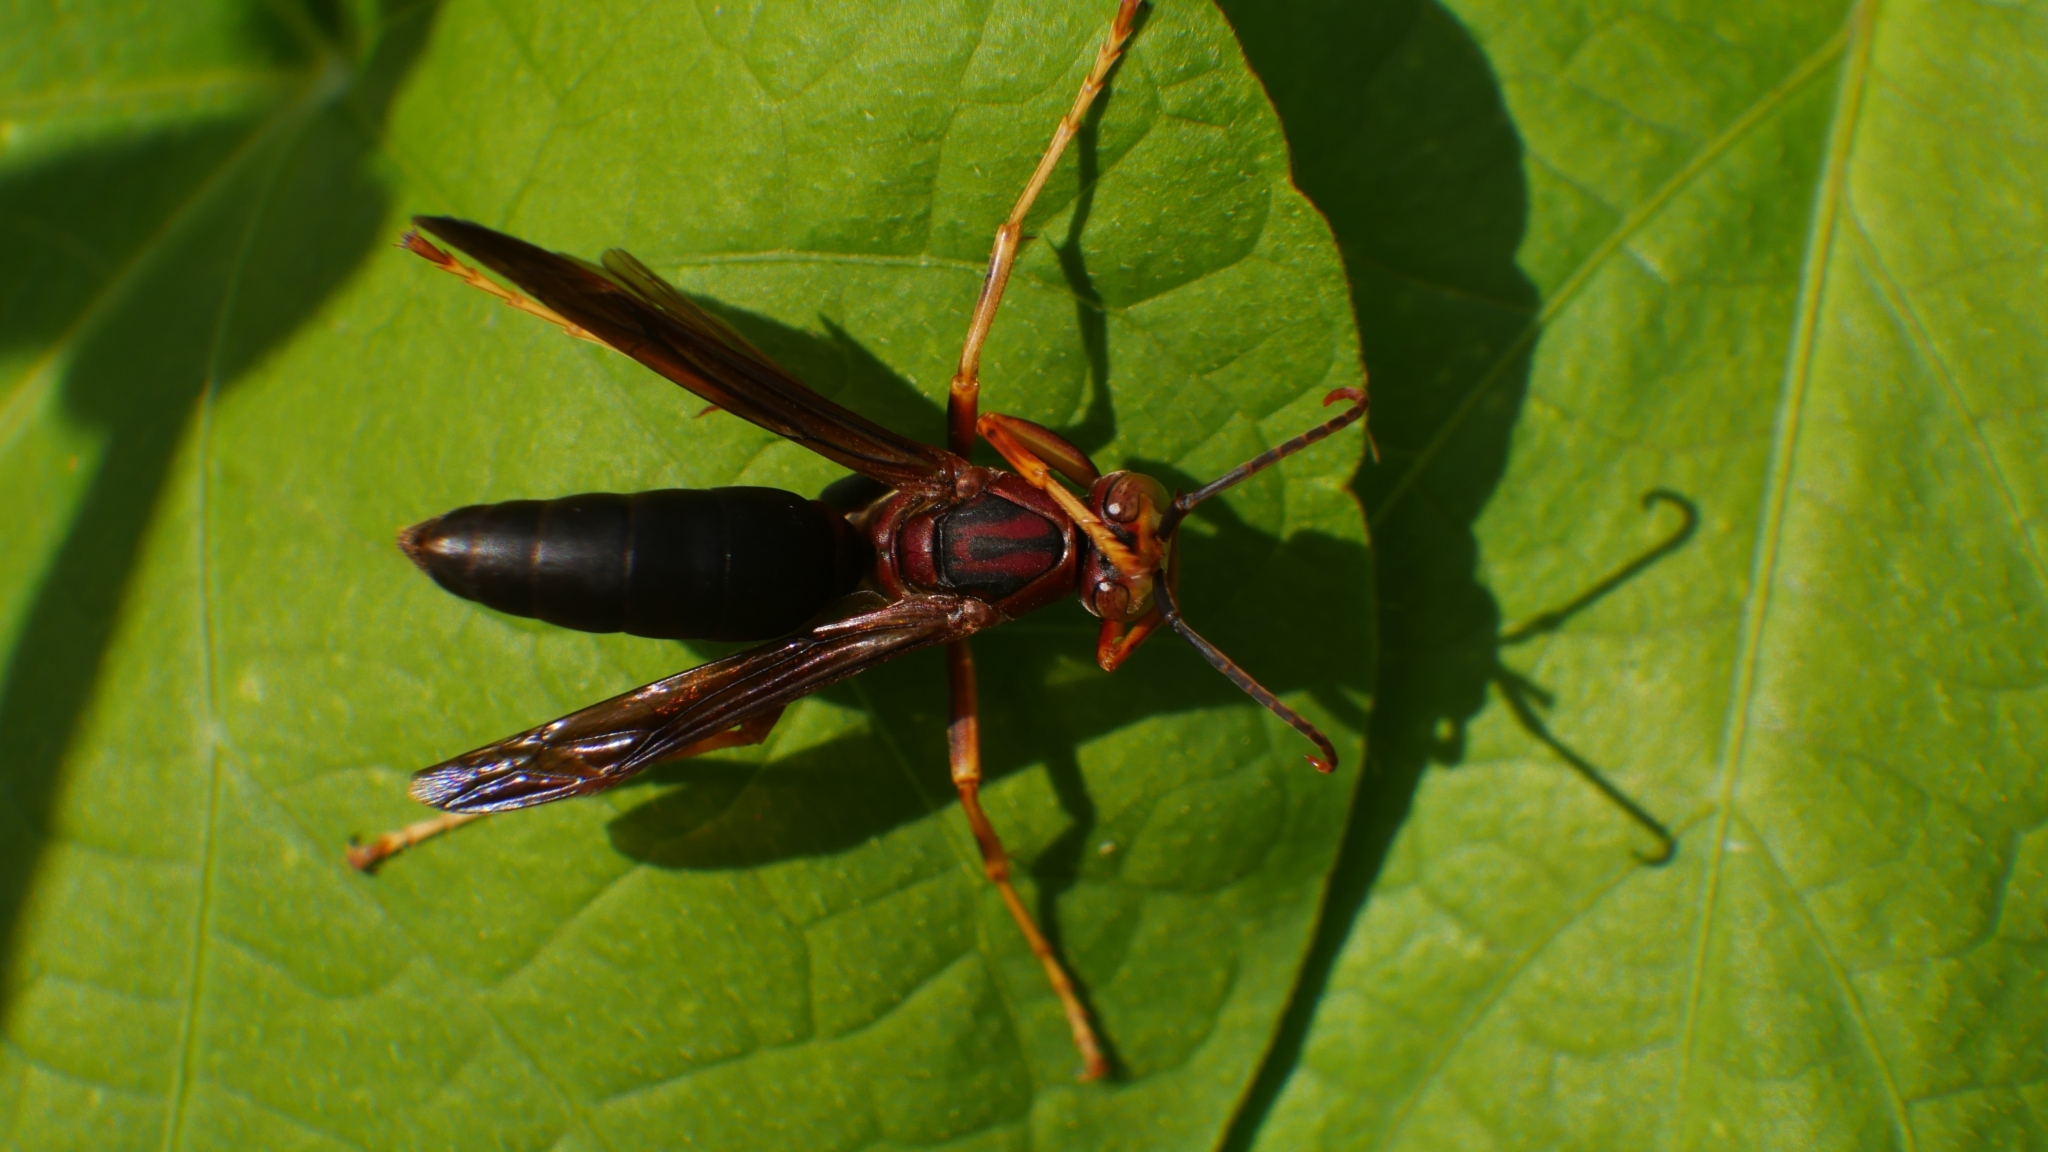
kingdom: Animalia
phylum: Arthropoda
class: Insecta
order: Hymenoptera
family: Eumenidae
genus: Polistes
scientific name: Polistes metricus
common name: Metric paper wasp
